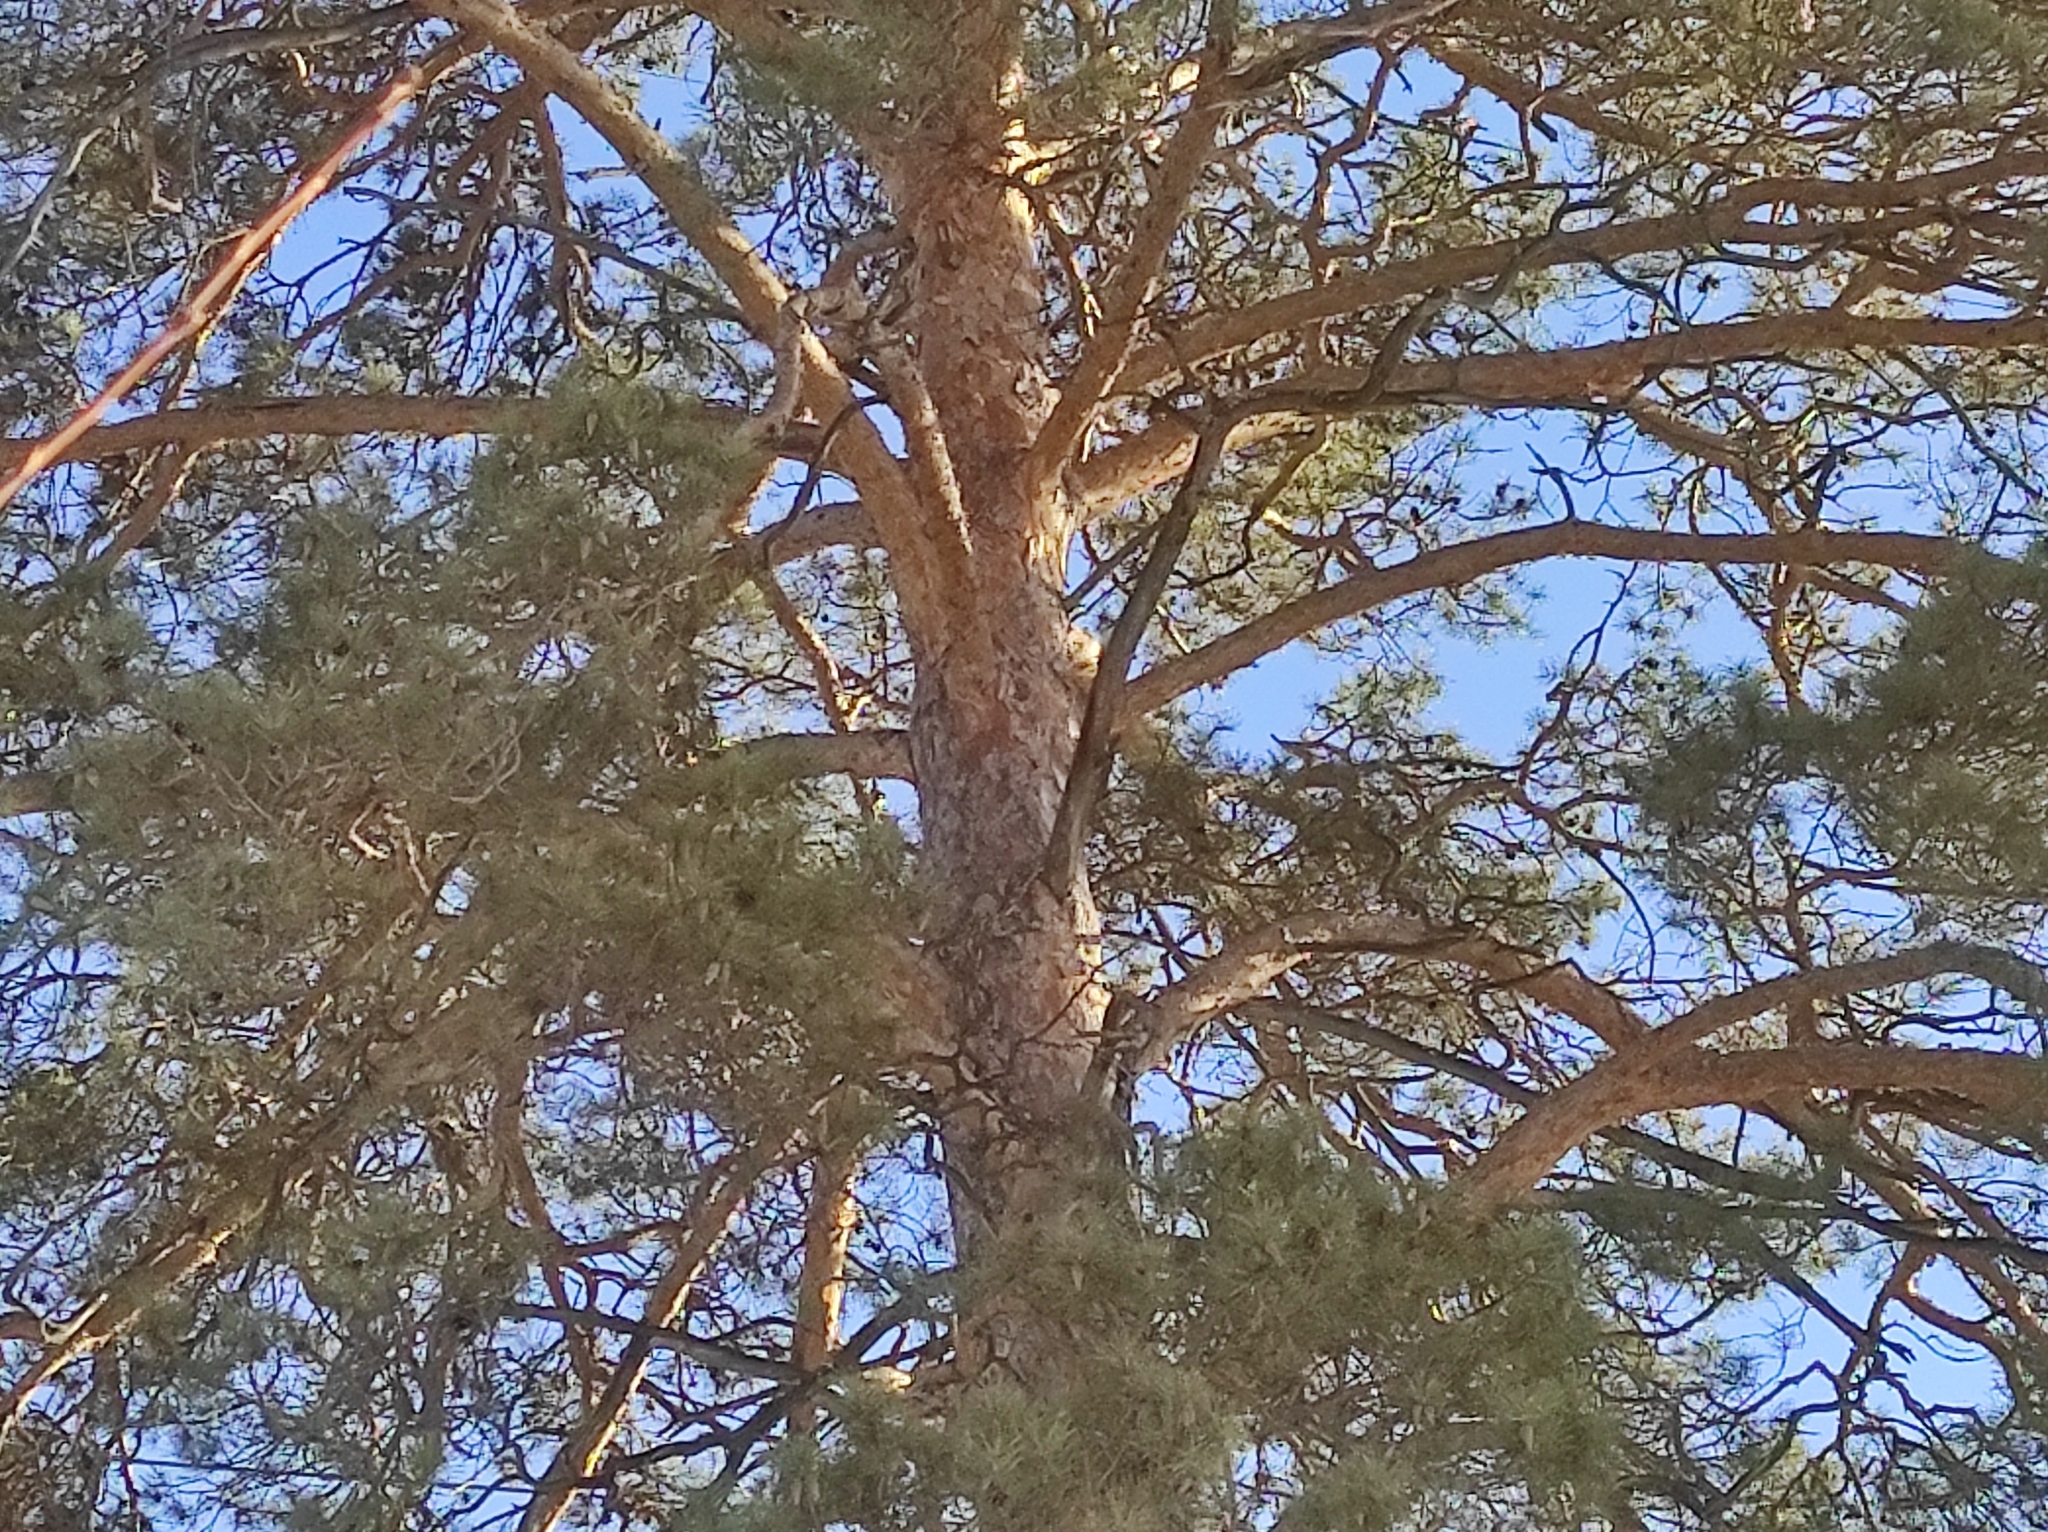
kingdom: Plantae
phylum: Tracheophyta
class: Pinopsida
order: Pinales
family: Pinaceae
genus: Pinus
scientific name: Pinus sylvestris
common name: Scots pine
